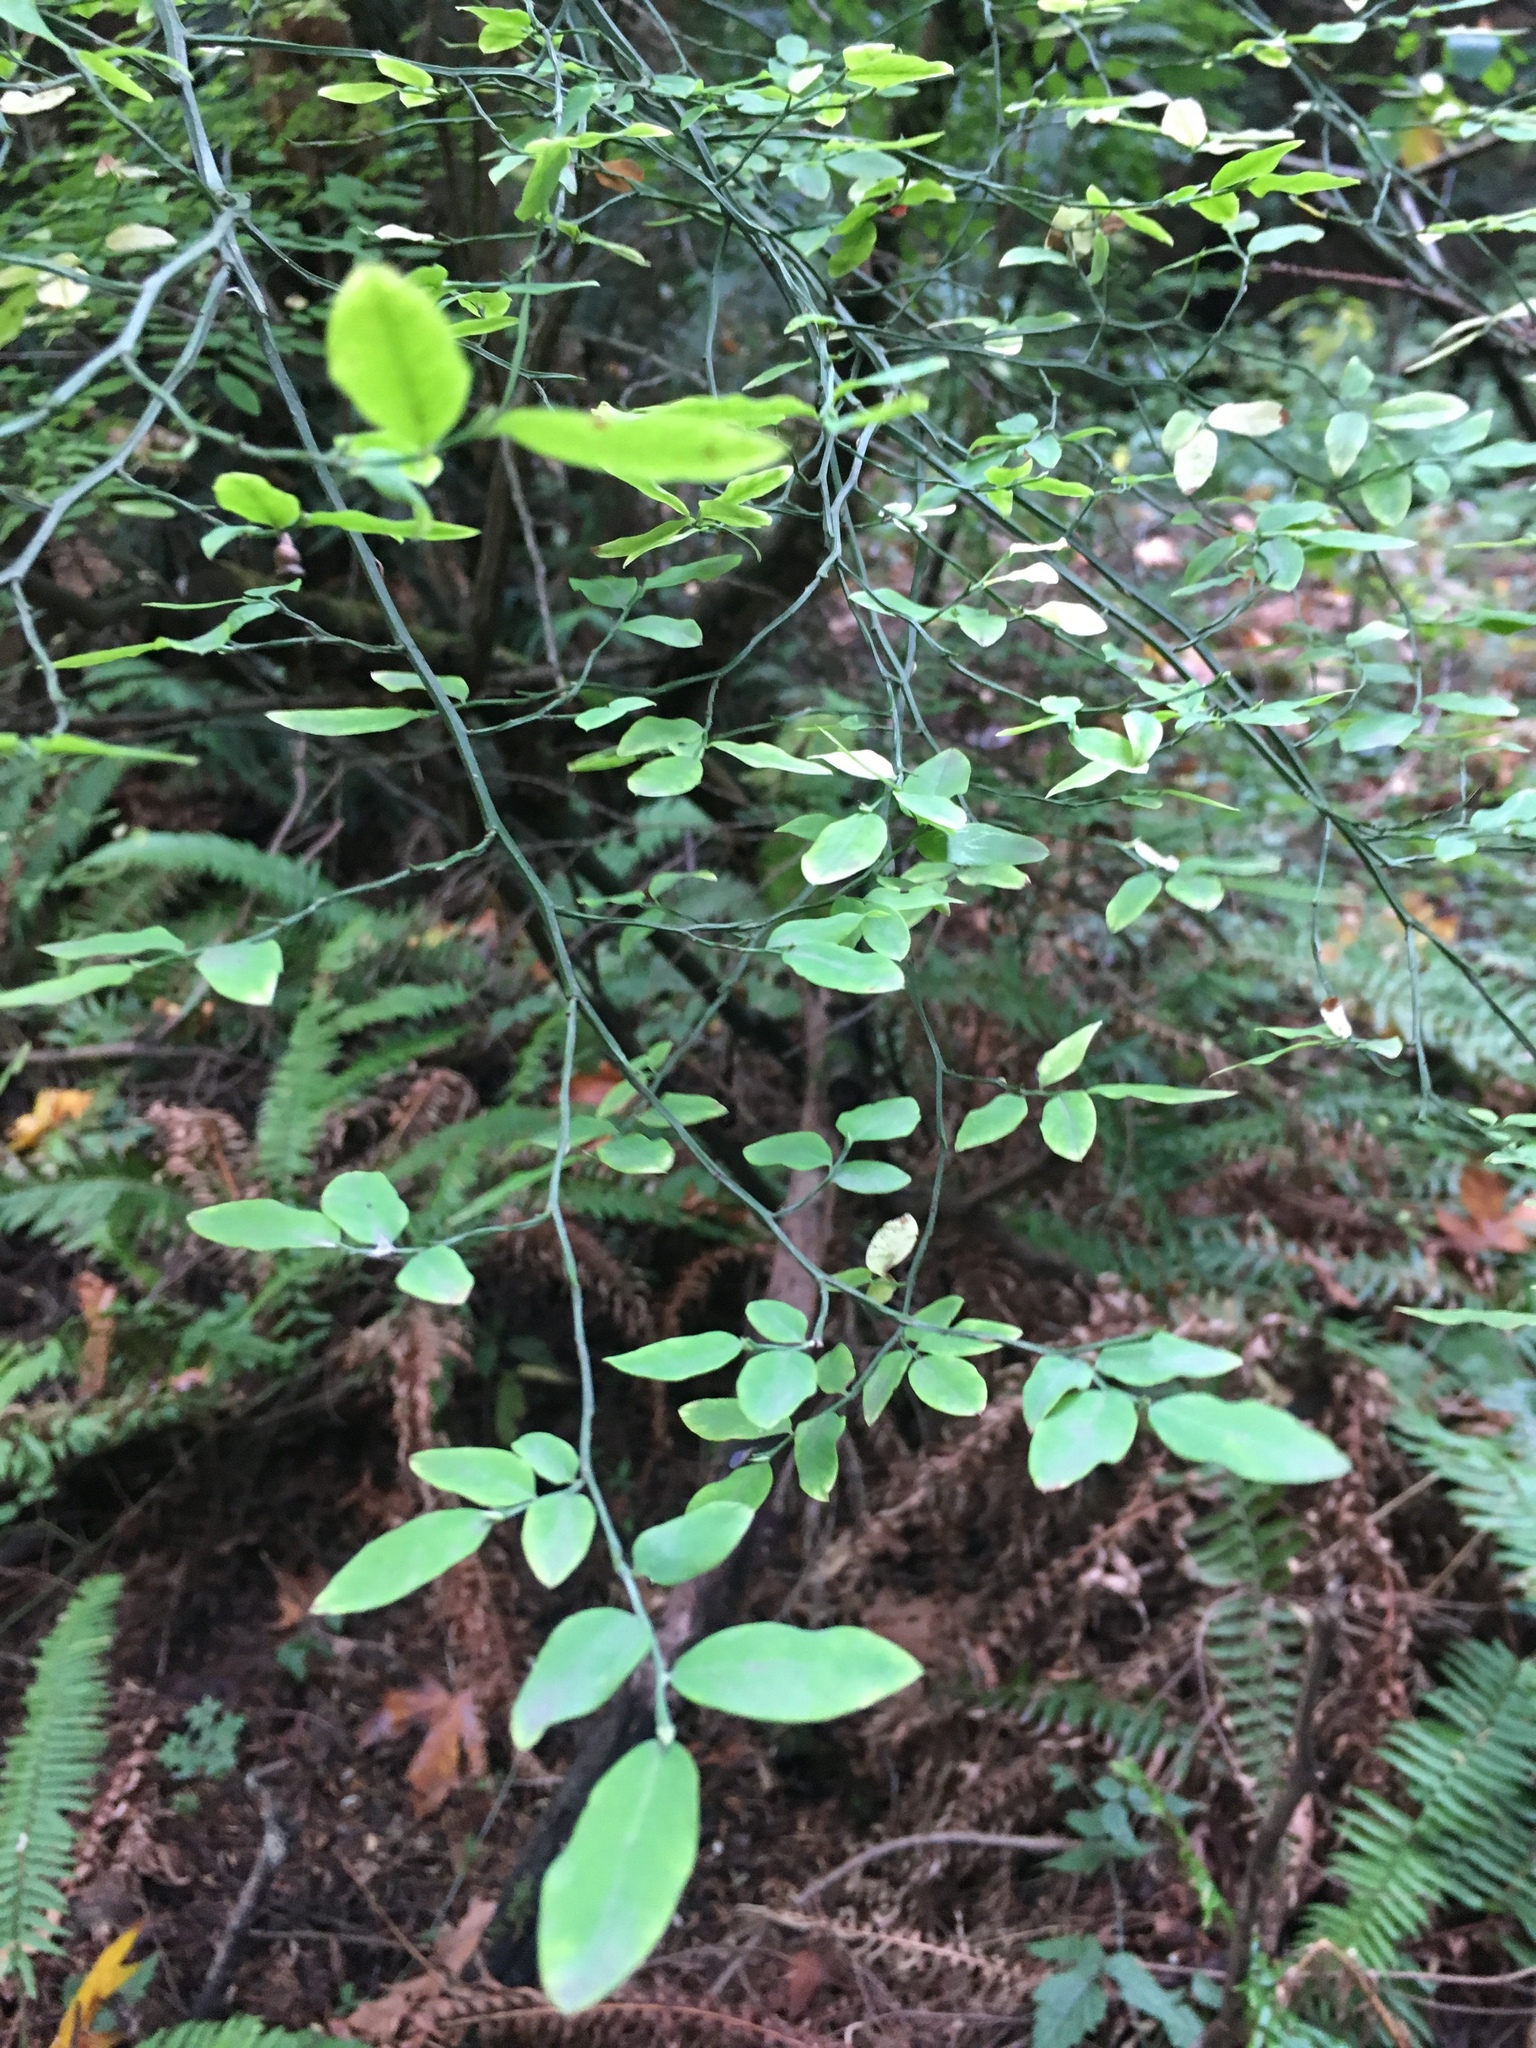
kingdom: Plantae
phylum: Tracheophyta
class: Magnoliopsida
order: Ericales
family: Ericaceae
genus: Vaccinium
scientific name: Vaccinium parvifolium
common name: Red-huckleberry
